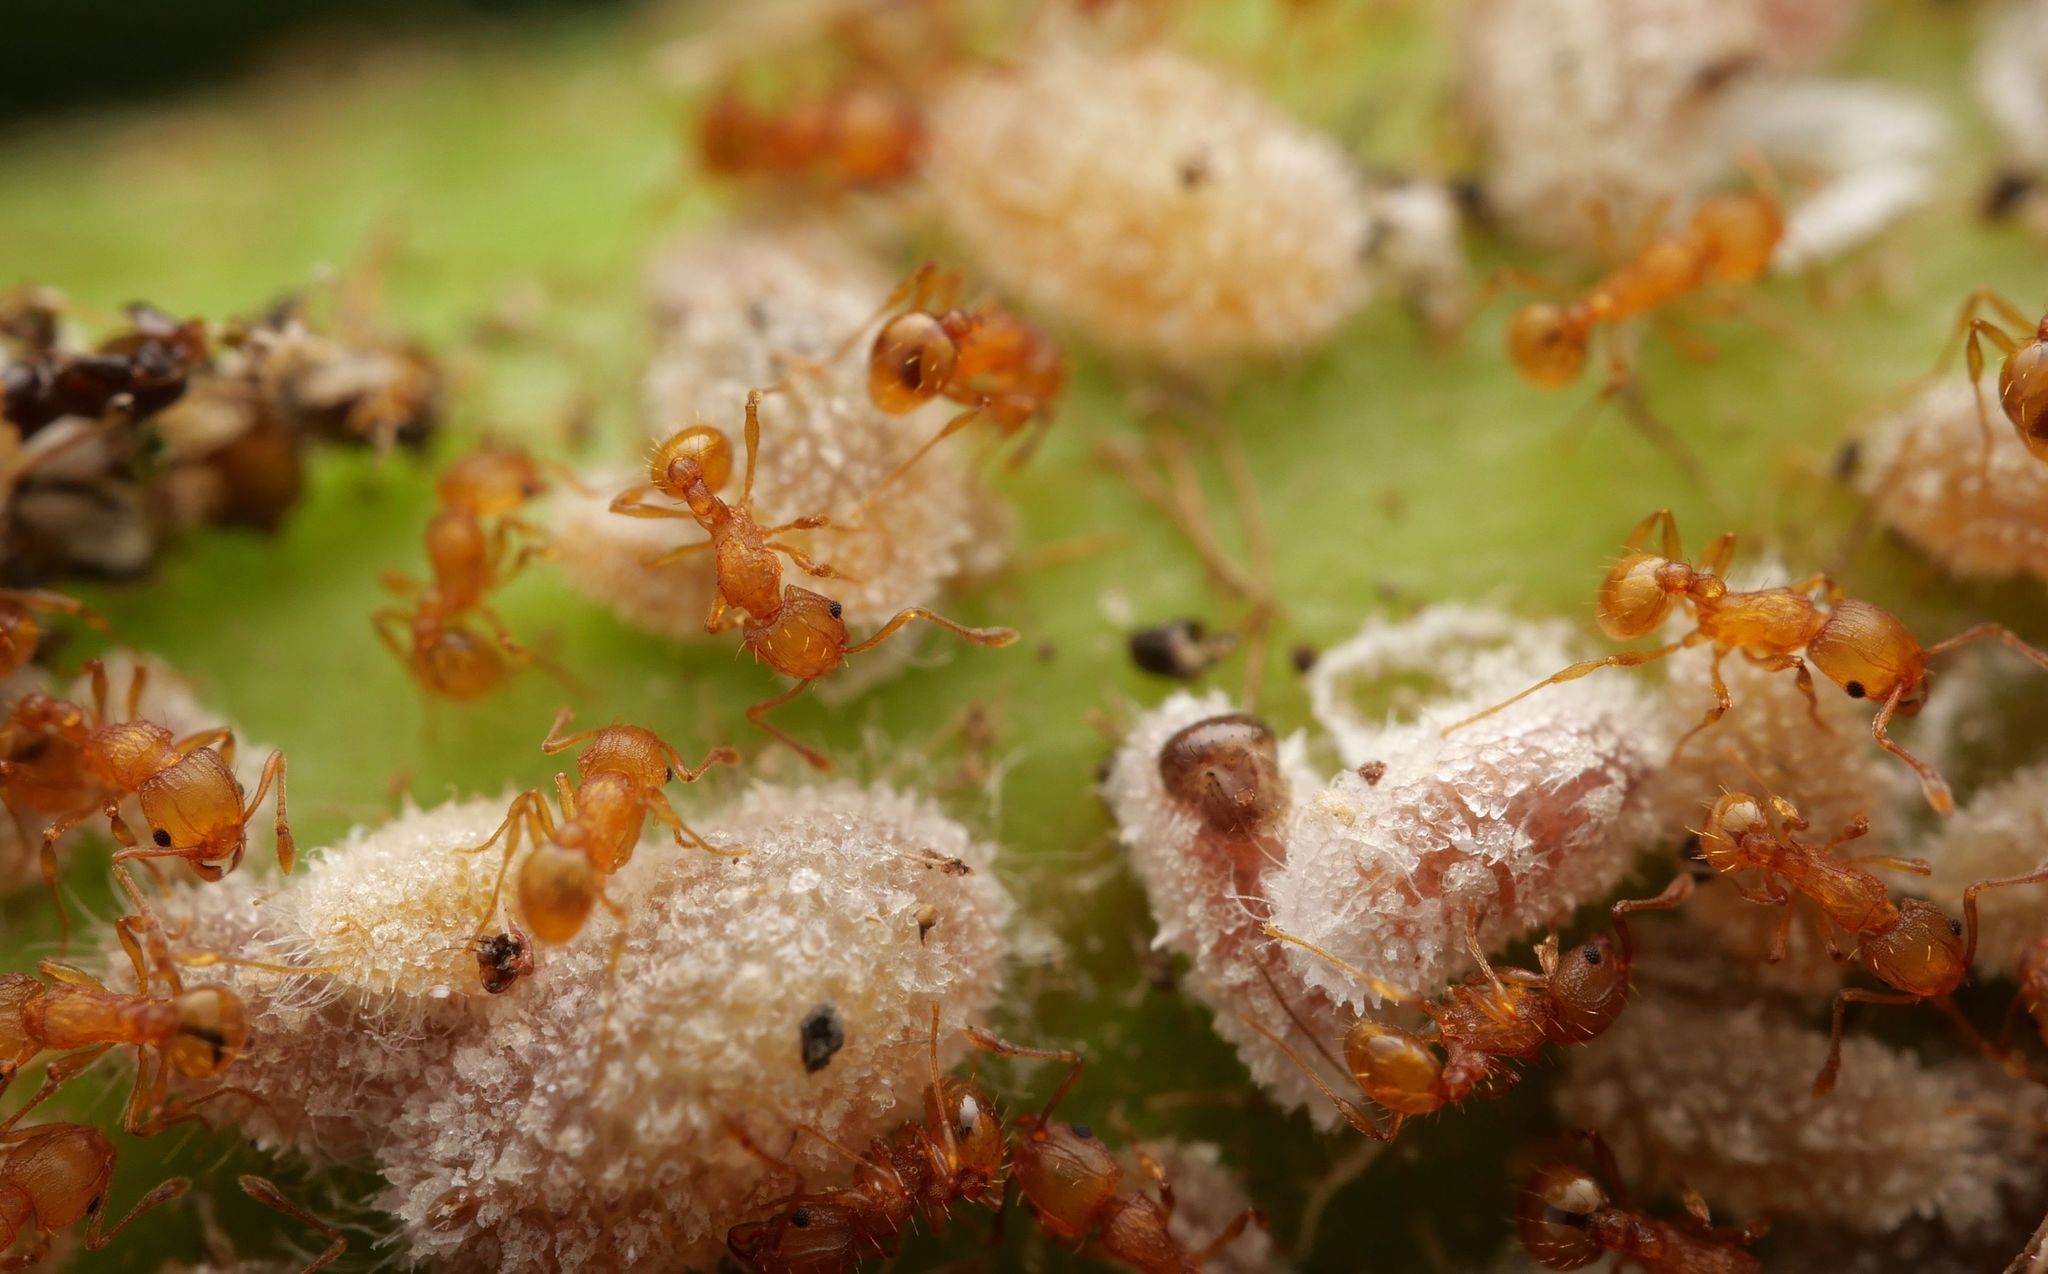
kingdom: Animalia
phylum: Arthropoda
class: Insecta
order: Hymenoptera
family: Formicidae
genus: Wasmannia
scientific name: Wasmannia auropunctata
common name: Little fire ant
